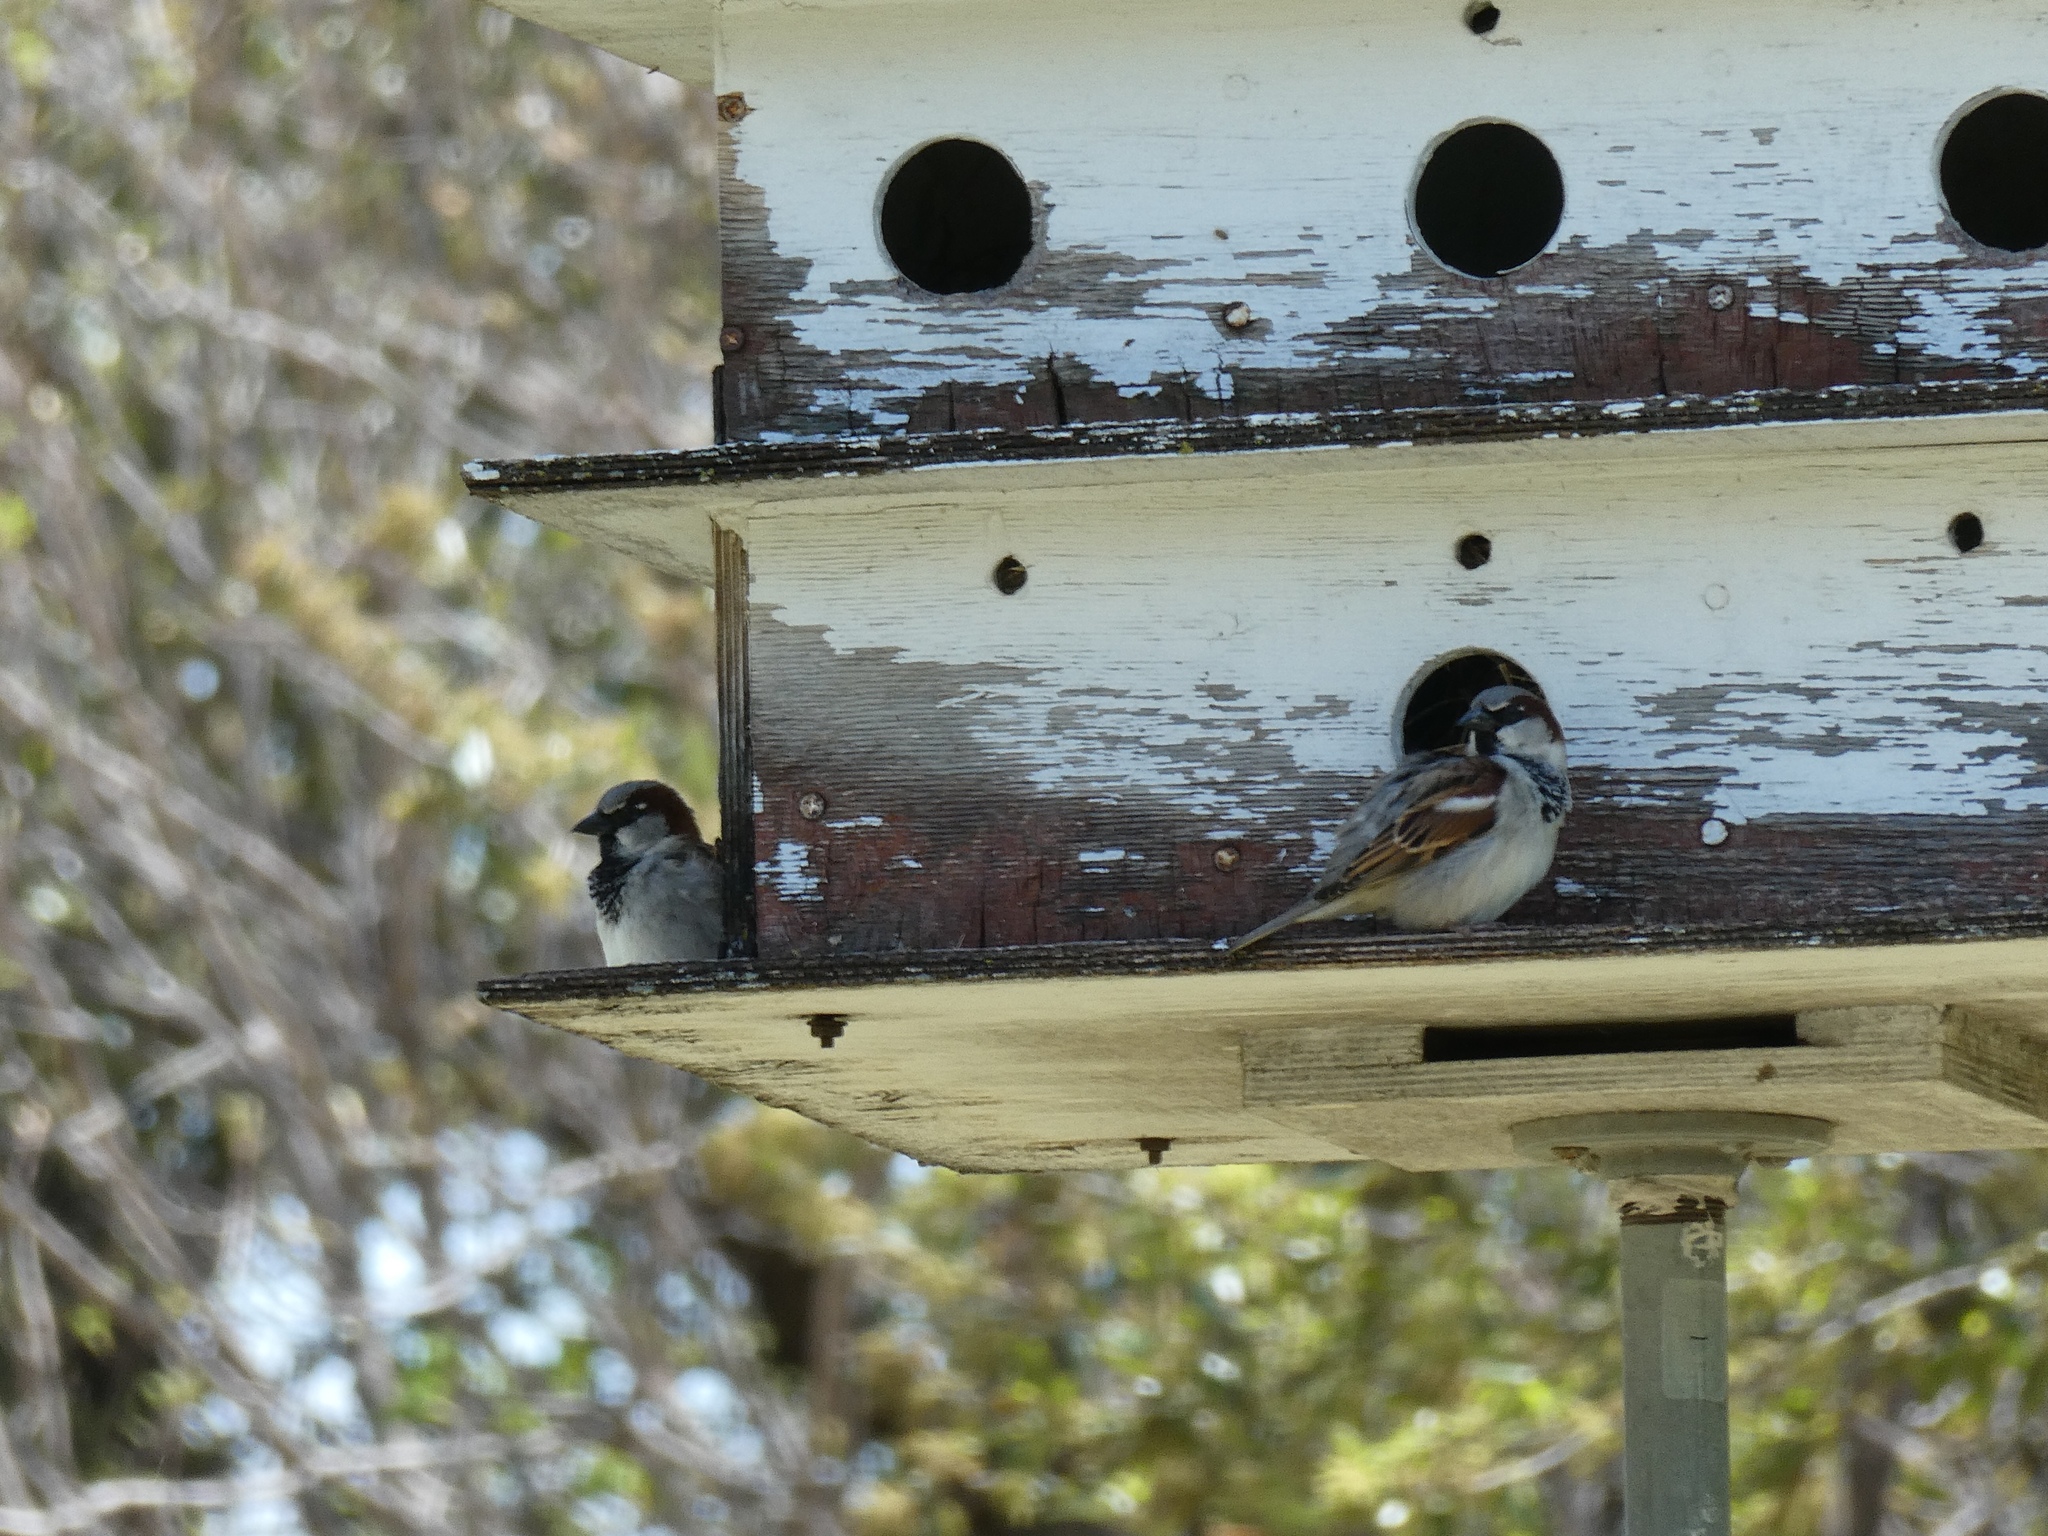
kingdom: Animalia
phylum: Chordata
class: Aves
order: Passeriformes
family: Passeridae
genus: Passer
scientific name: Passer domesticus
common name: House sparrow
